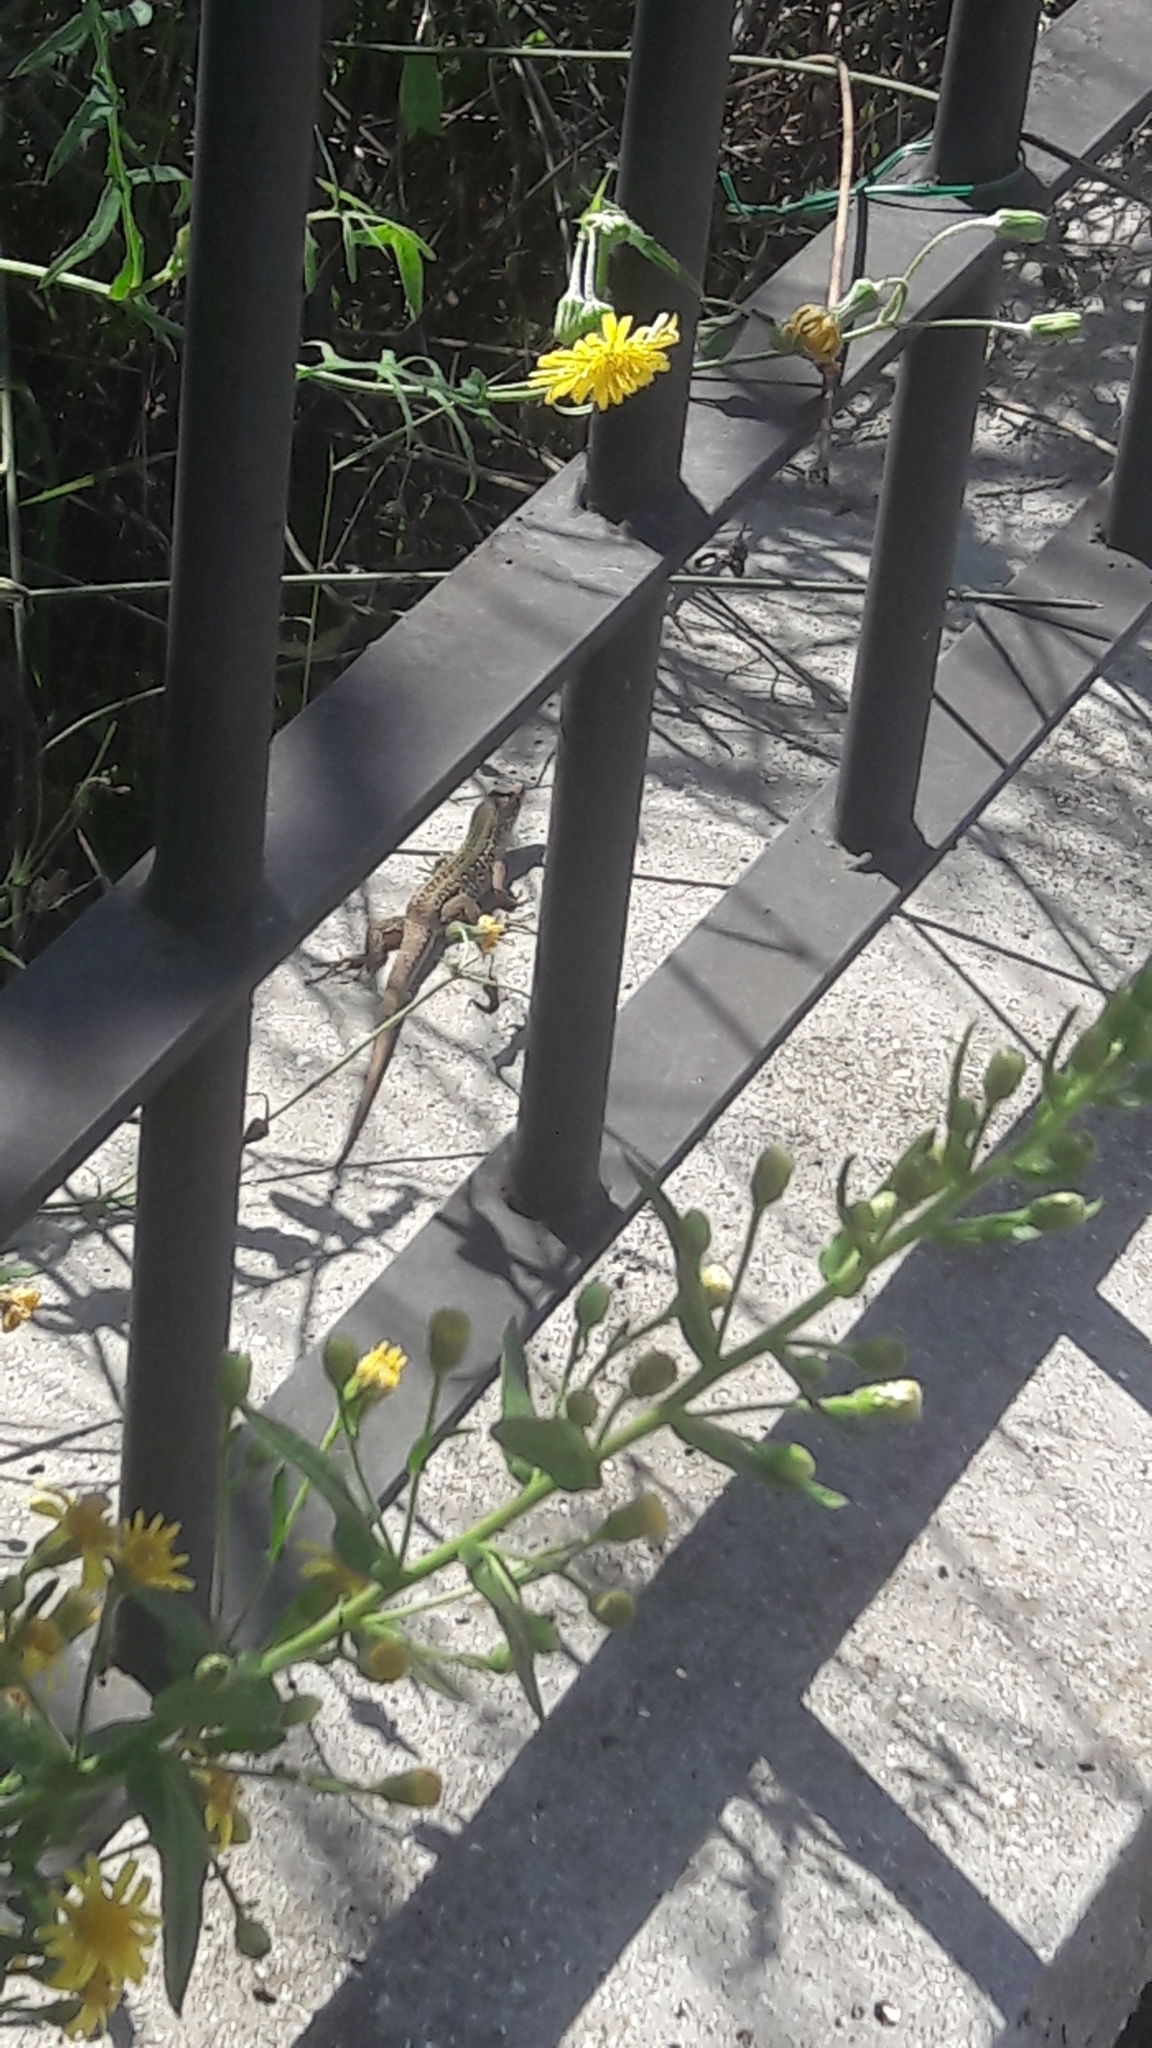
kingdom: Animalia
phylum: Chordata
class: Squamata
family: Lacertidae
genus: Podarcis
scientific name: Podarcis siculus
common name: Italian wall lizard
